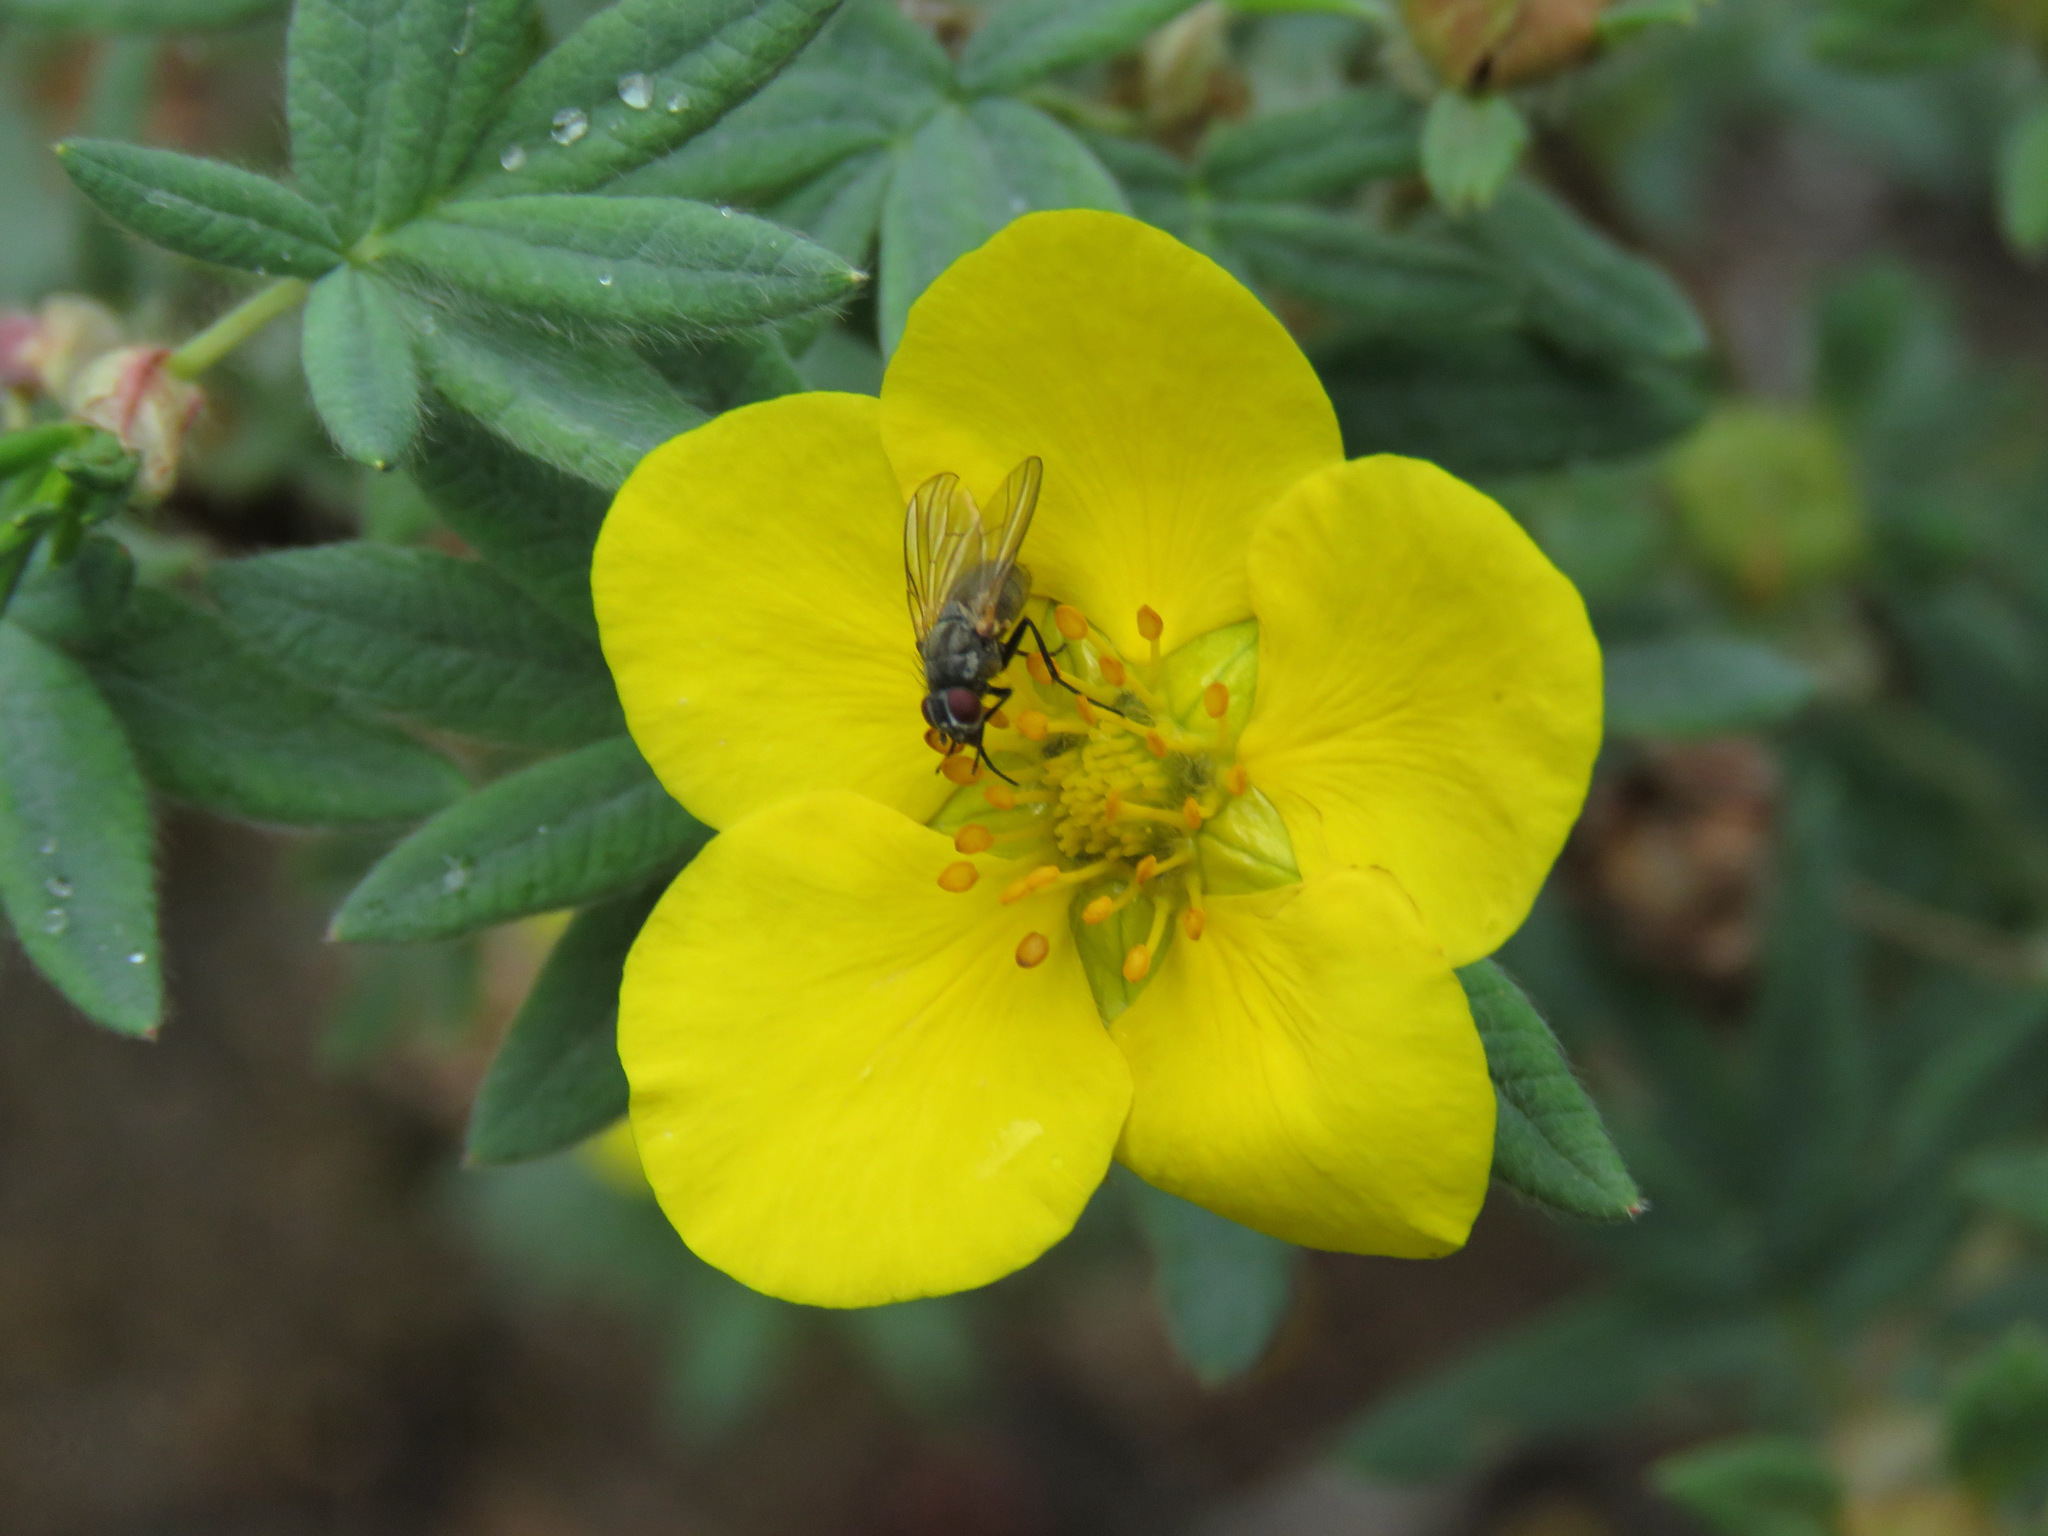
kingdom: Plantae
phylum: Tracheophyta
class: Magnoliopsida
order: Rosales
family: Rosaceae
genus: Dasiphora
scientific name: Dasiphora fruticosa
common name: Shrubby cinquefoil
